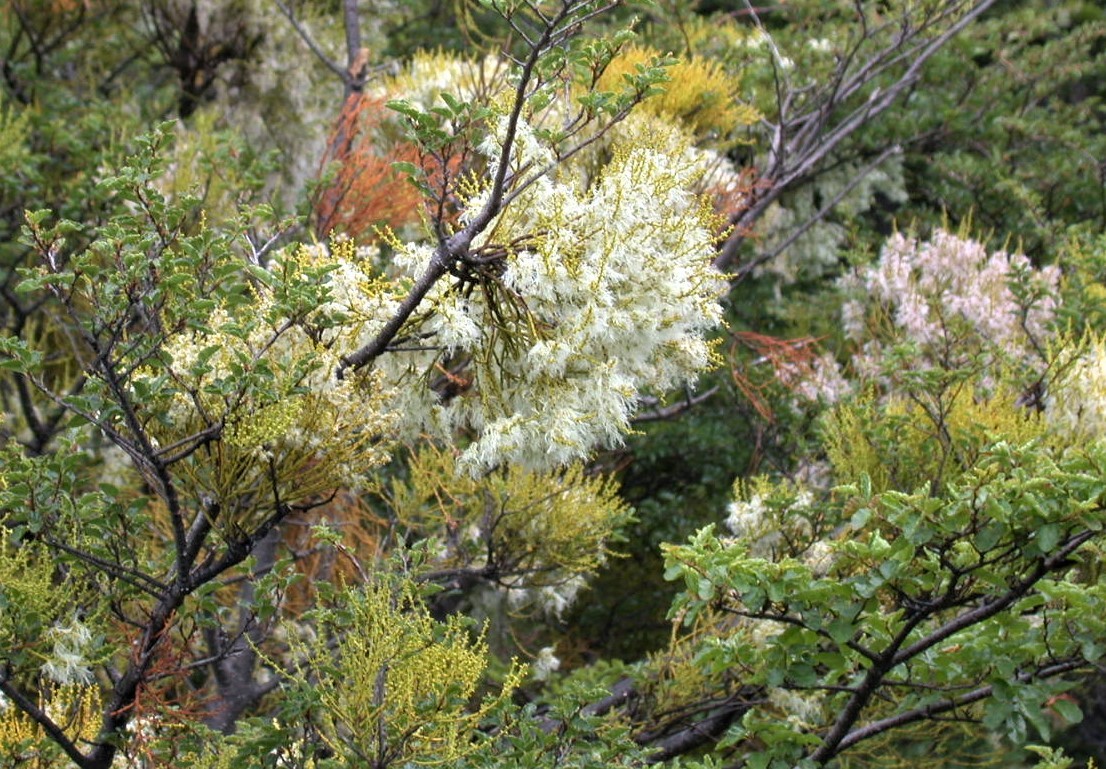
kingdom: Plantae
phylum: Tracheophyta
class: Magnoliopsida
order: Santalales
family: Misodendraceae
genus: Misodendrum
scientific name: Misodendrum punctulatum
